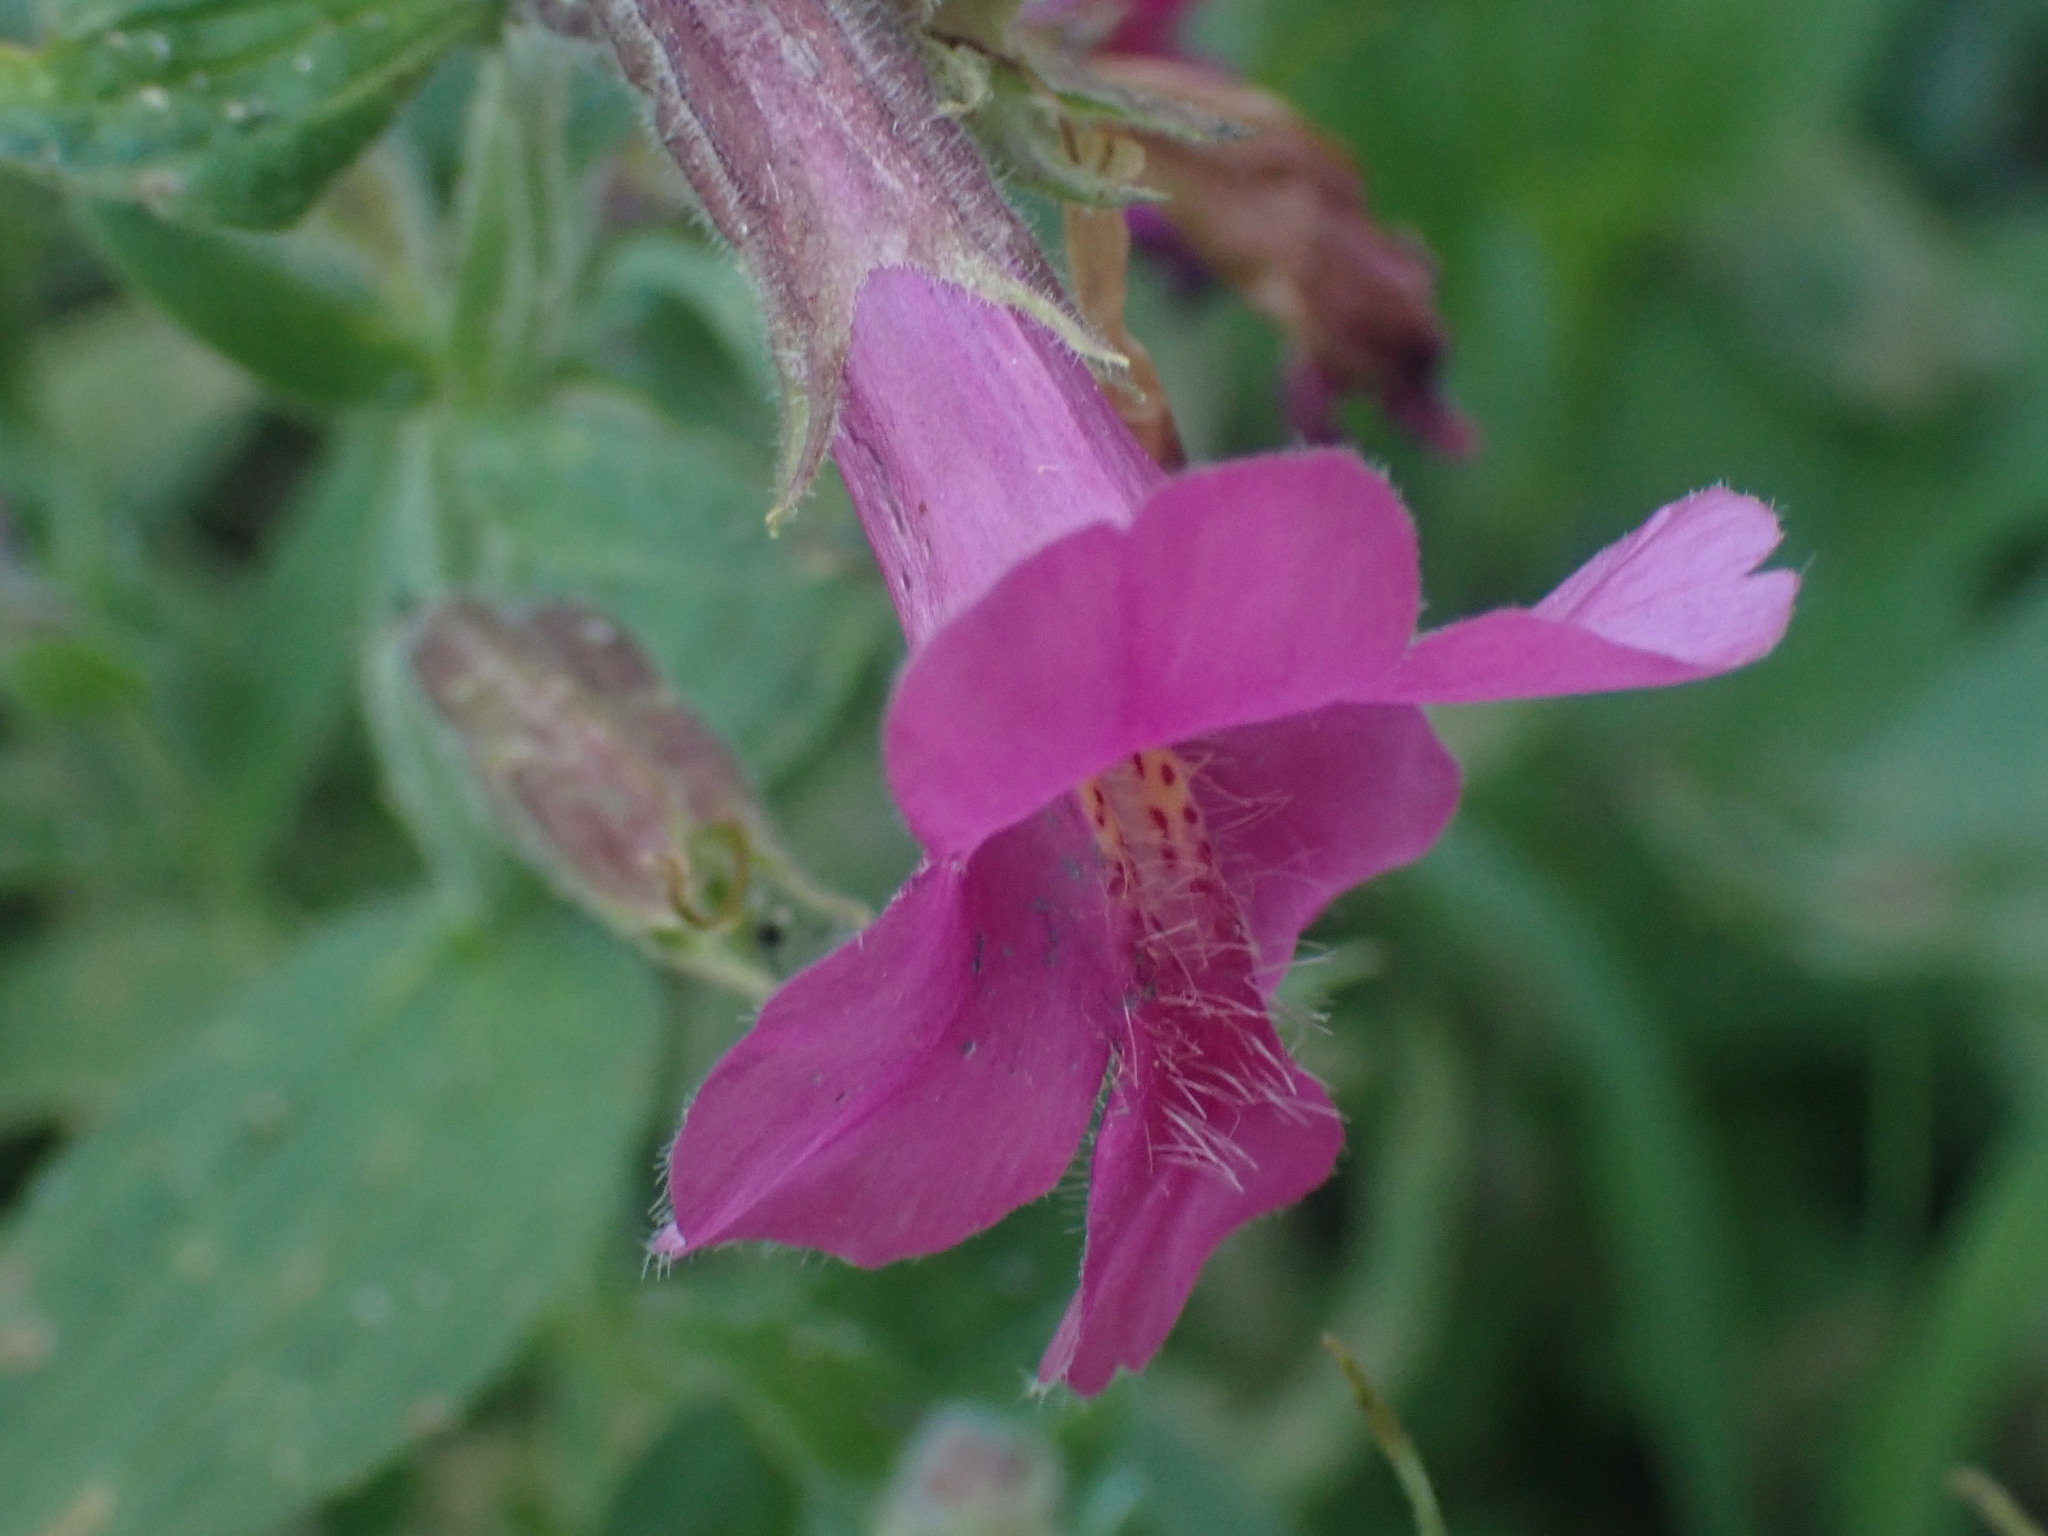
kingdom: Plantae
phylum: Tracheophyta
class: Magnoliopsida
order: Lamiales
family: Phrymaceae
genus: Erythranthe
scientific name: Erythranthe lewisii
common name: Lewis's monkey-flower
